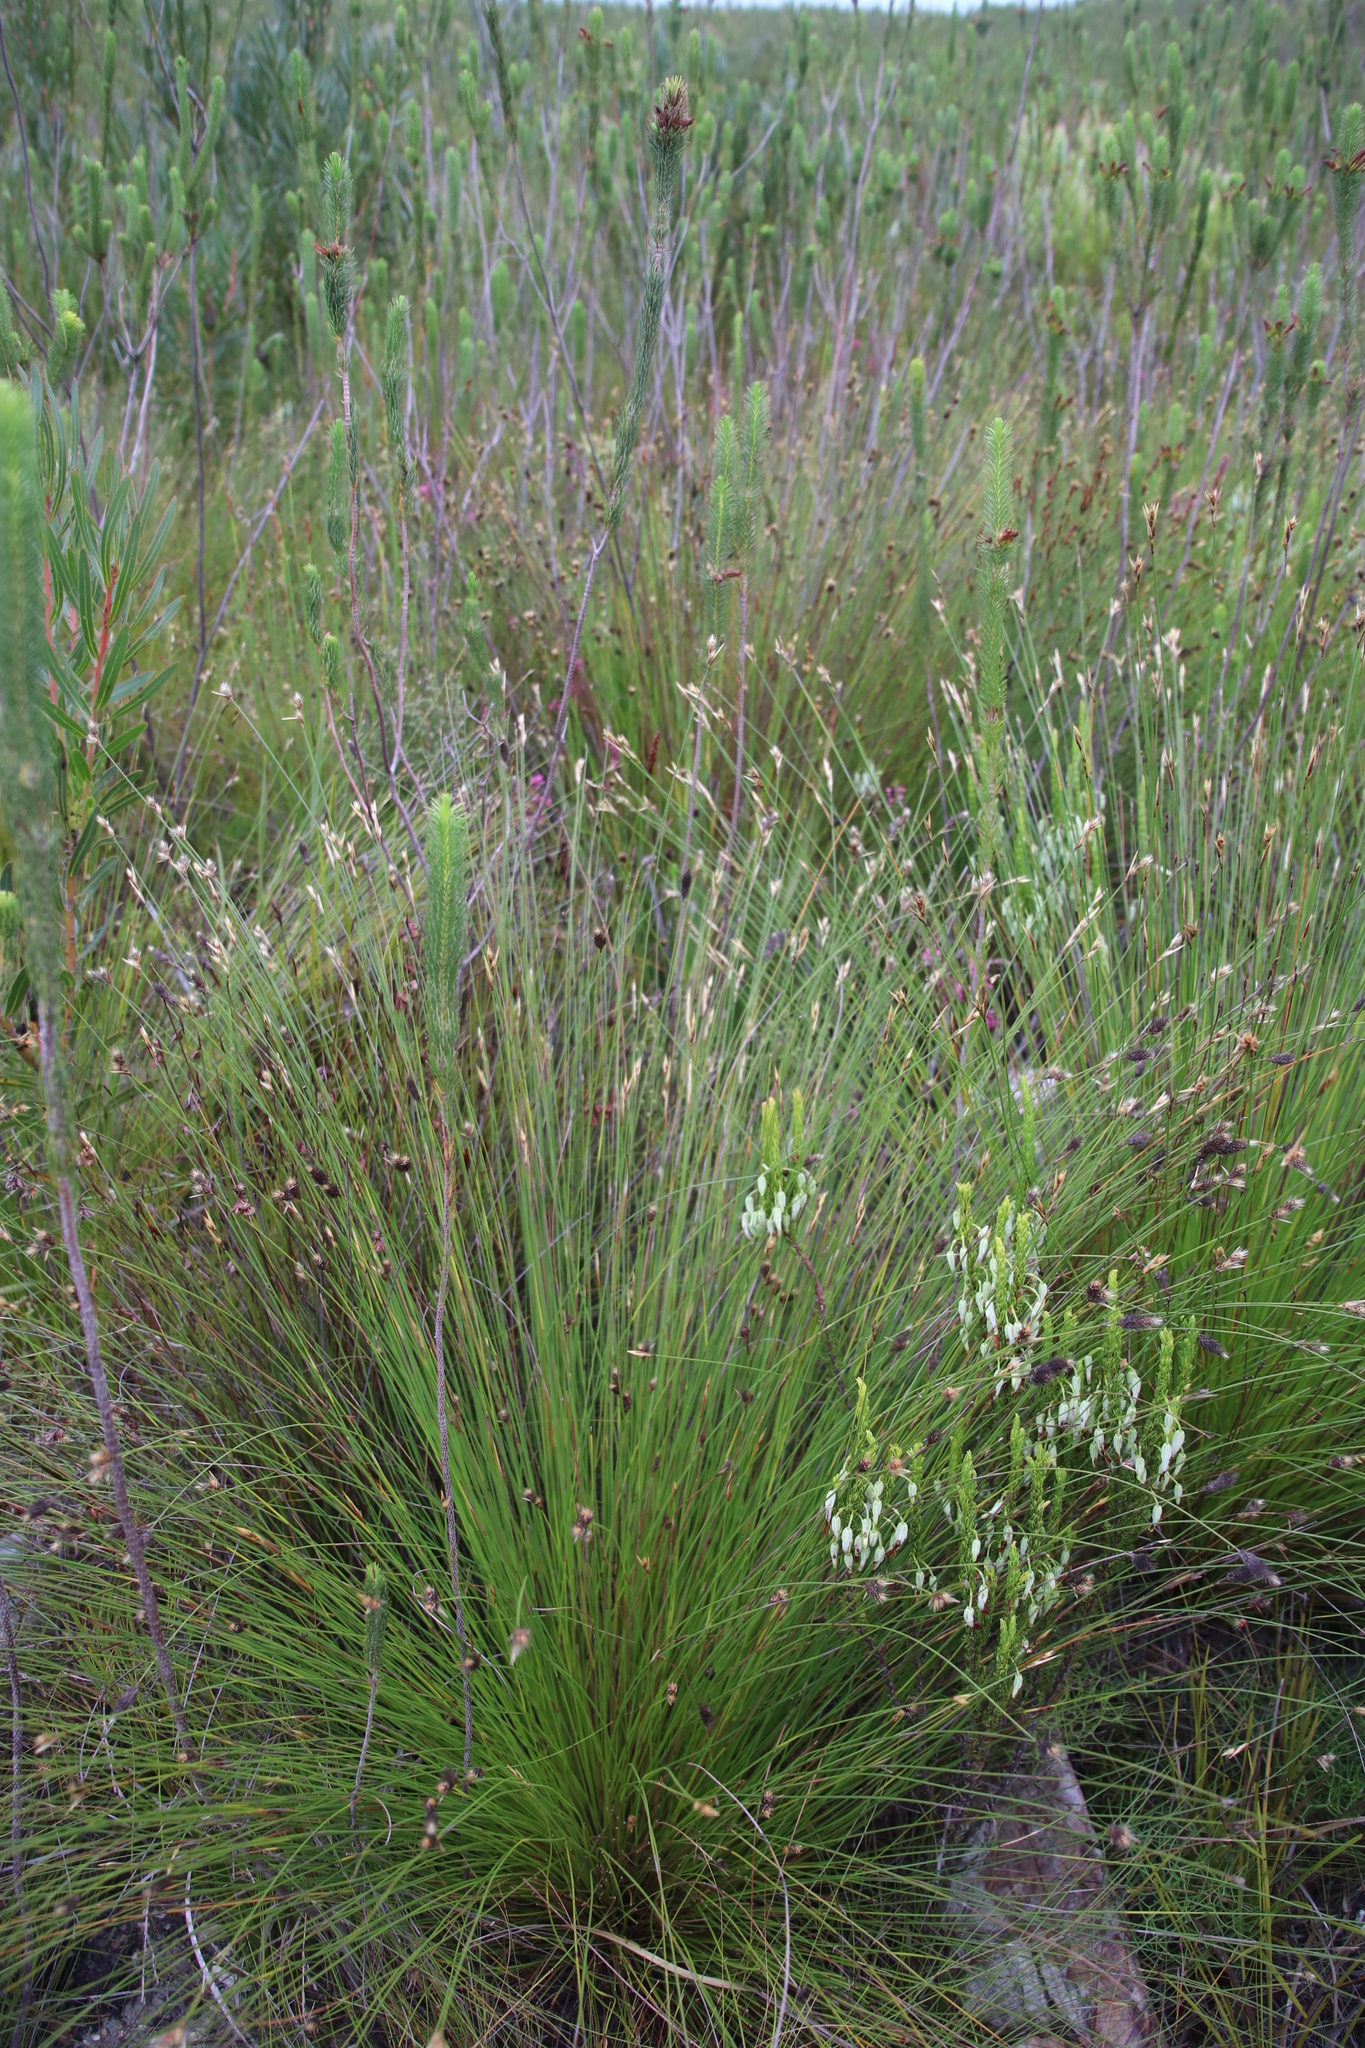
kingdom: Plantae
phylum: Tracheophyta
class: Liliopsida
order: Poales
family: Restionaceae
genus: Hypodiscus
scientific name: Hypodiscus alboaristatus
